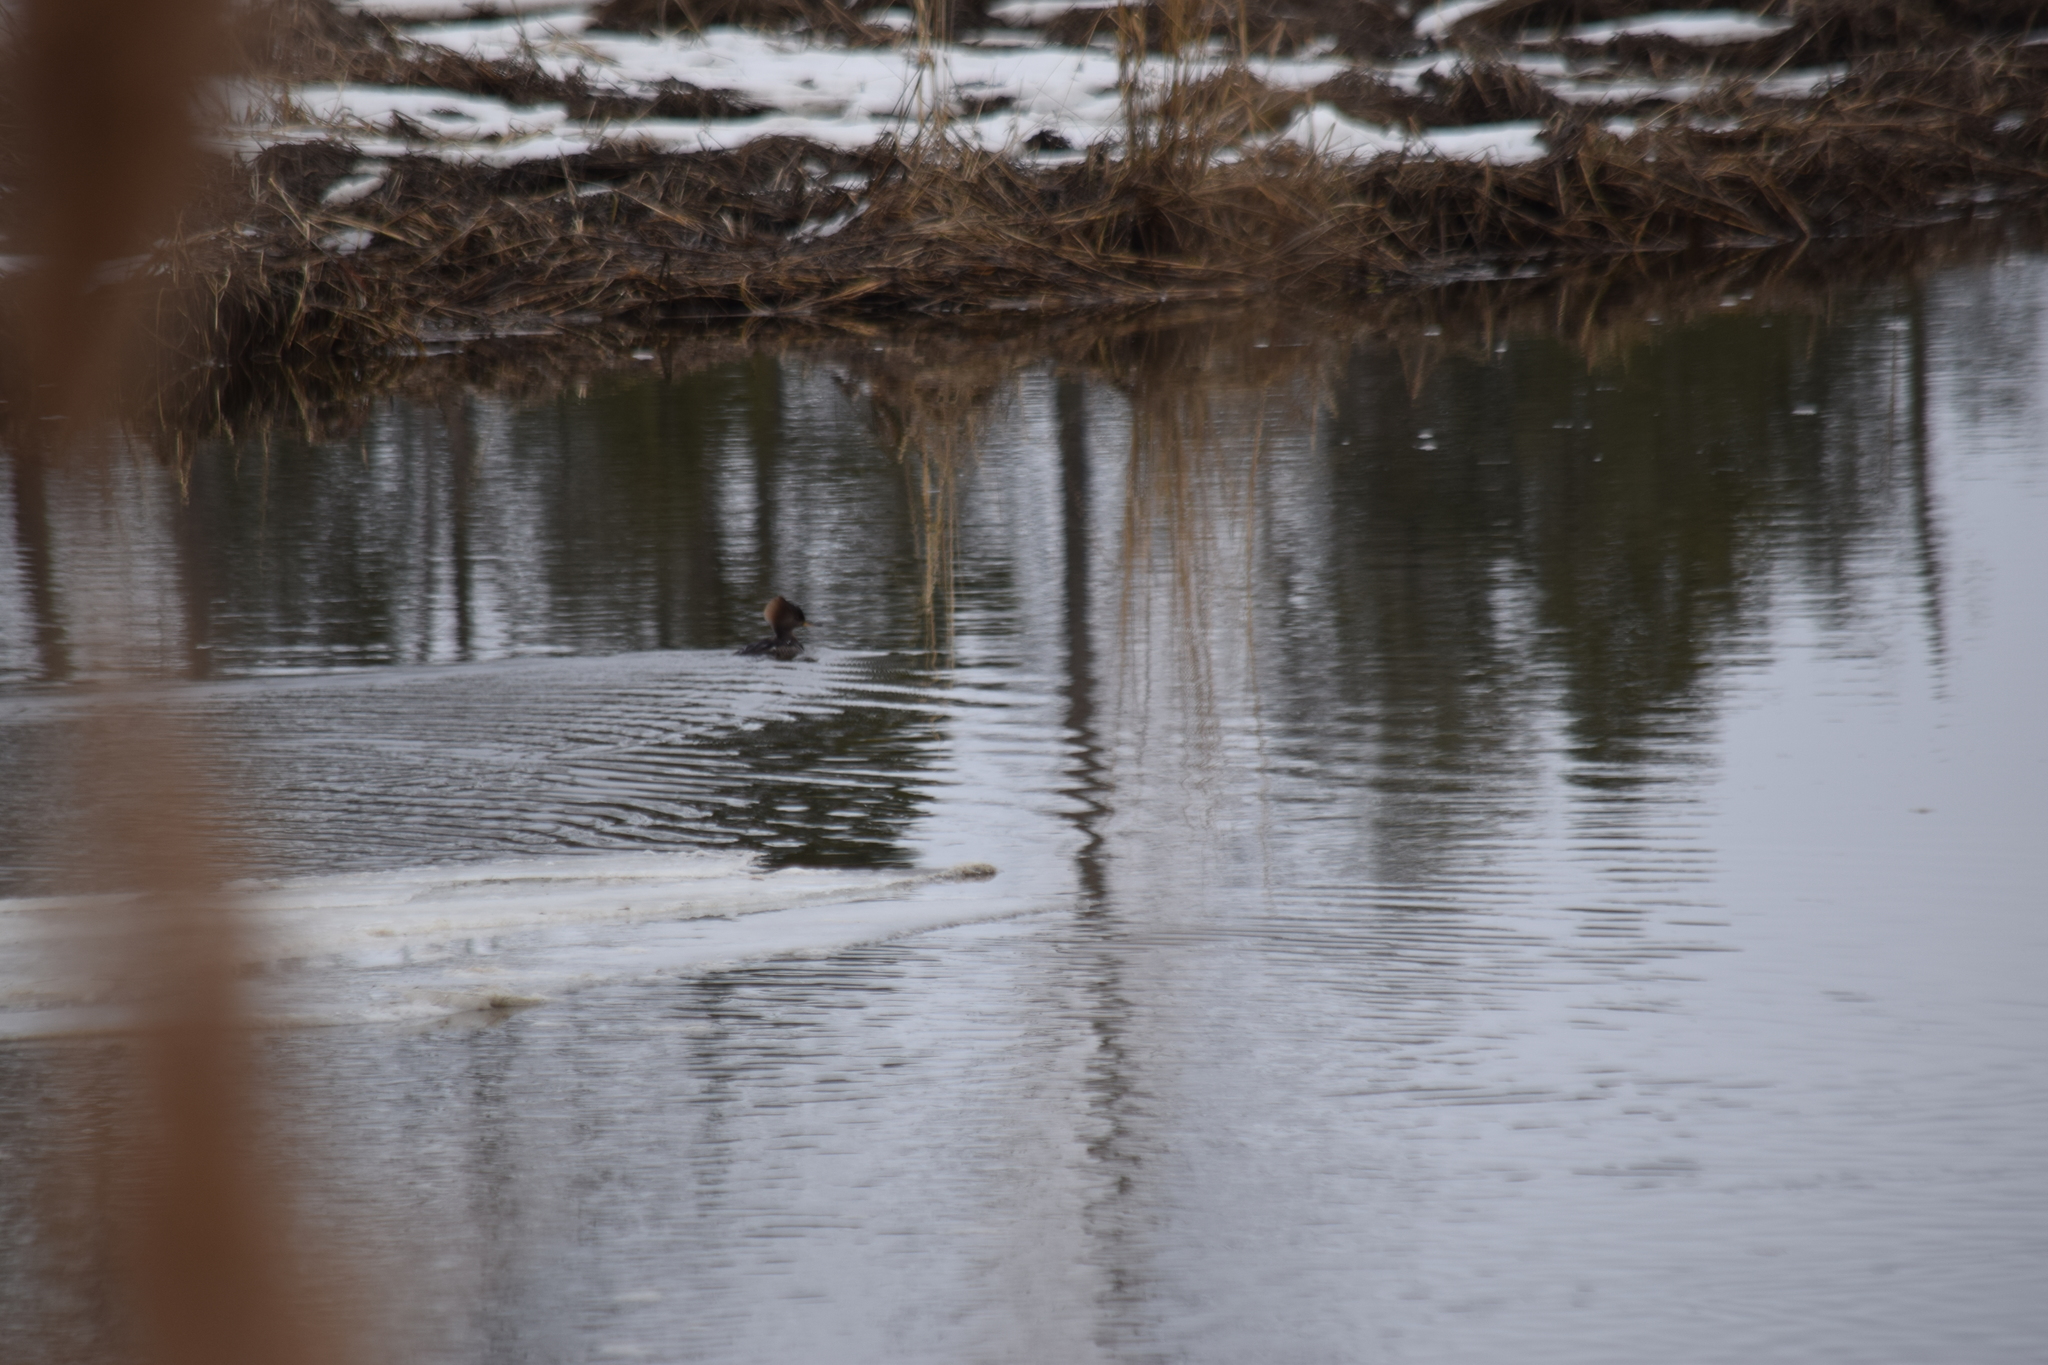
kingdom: Animalia
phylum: Chordata
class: Aves
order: Anseriformes
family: Anatidae
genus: Lophodytes
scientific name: Lophodytes cucullatus
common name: Hooded merganser
